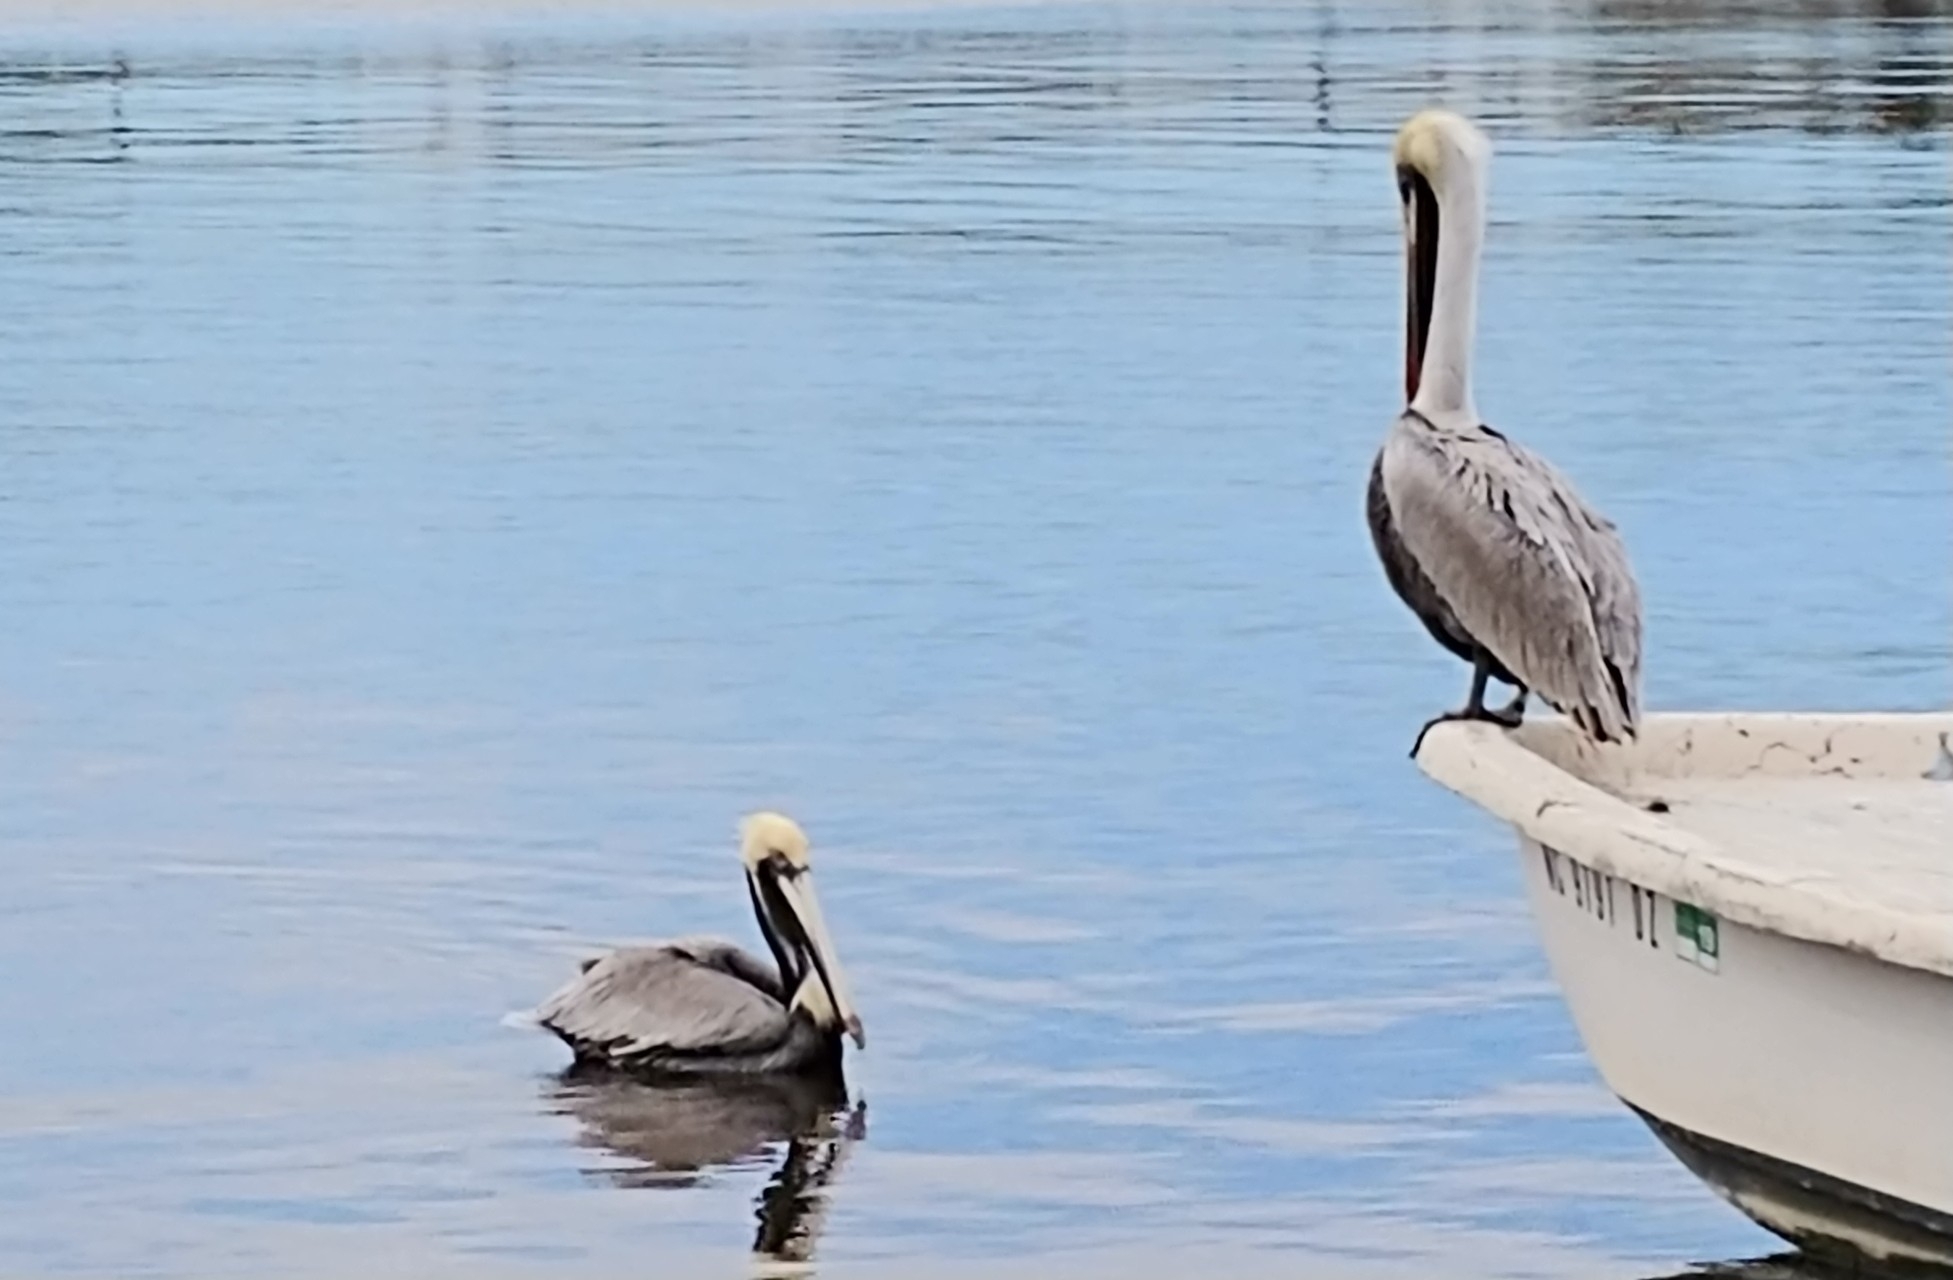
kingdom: Animalia
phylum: Chordata
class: Aves
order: Pelecaniformes
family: Pelecanidae
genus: Pelecanus
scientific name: Pelecanus occidentalis
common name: Brown pelican
